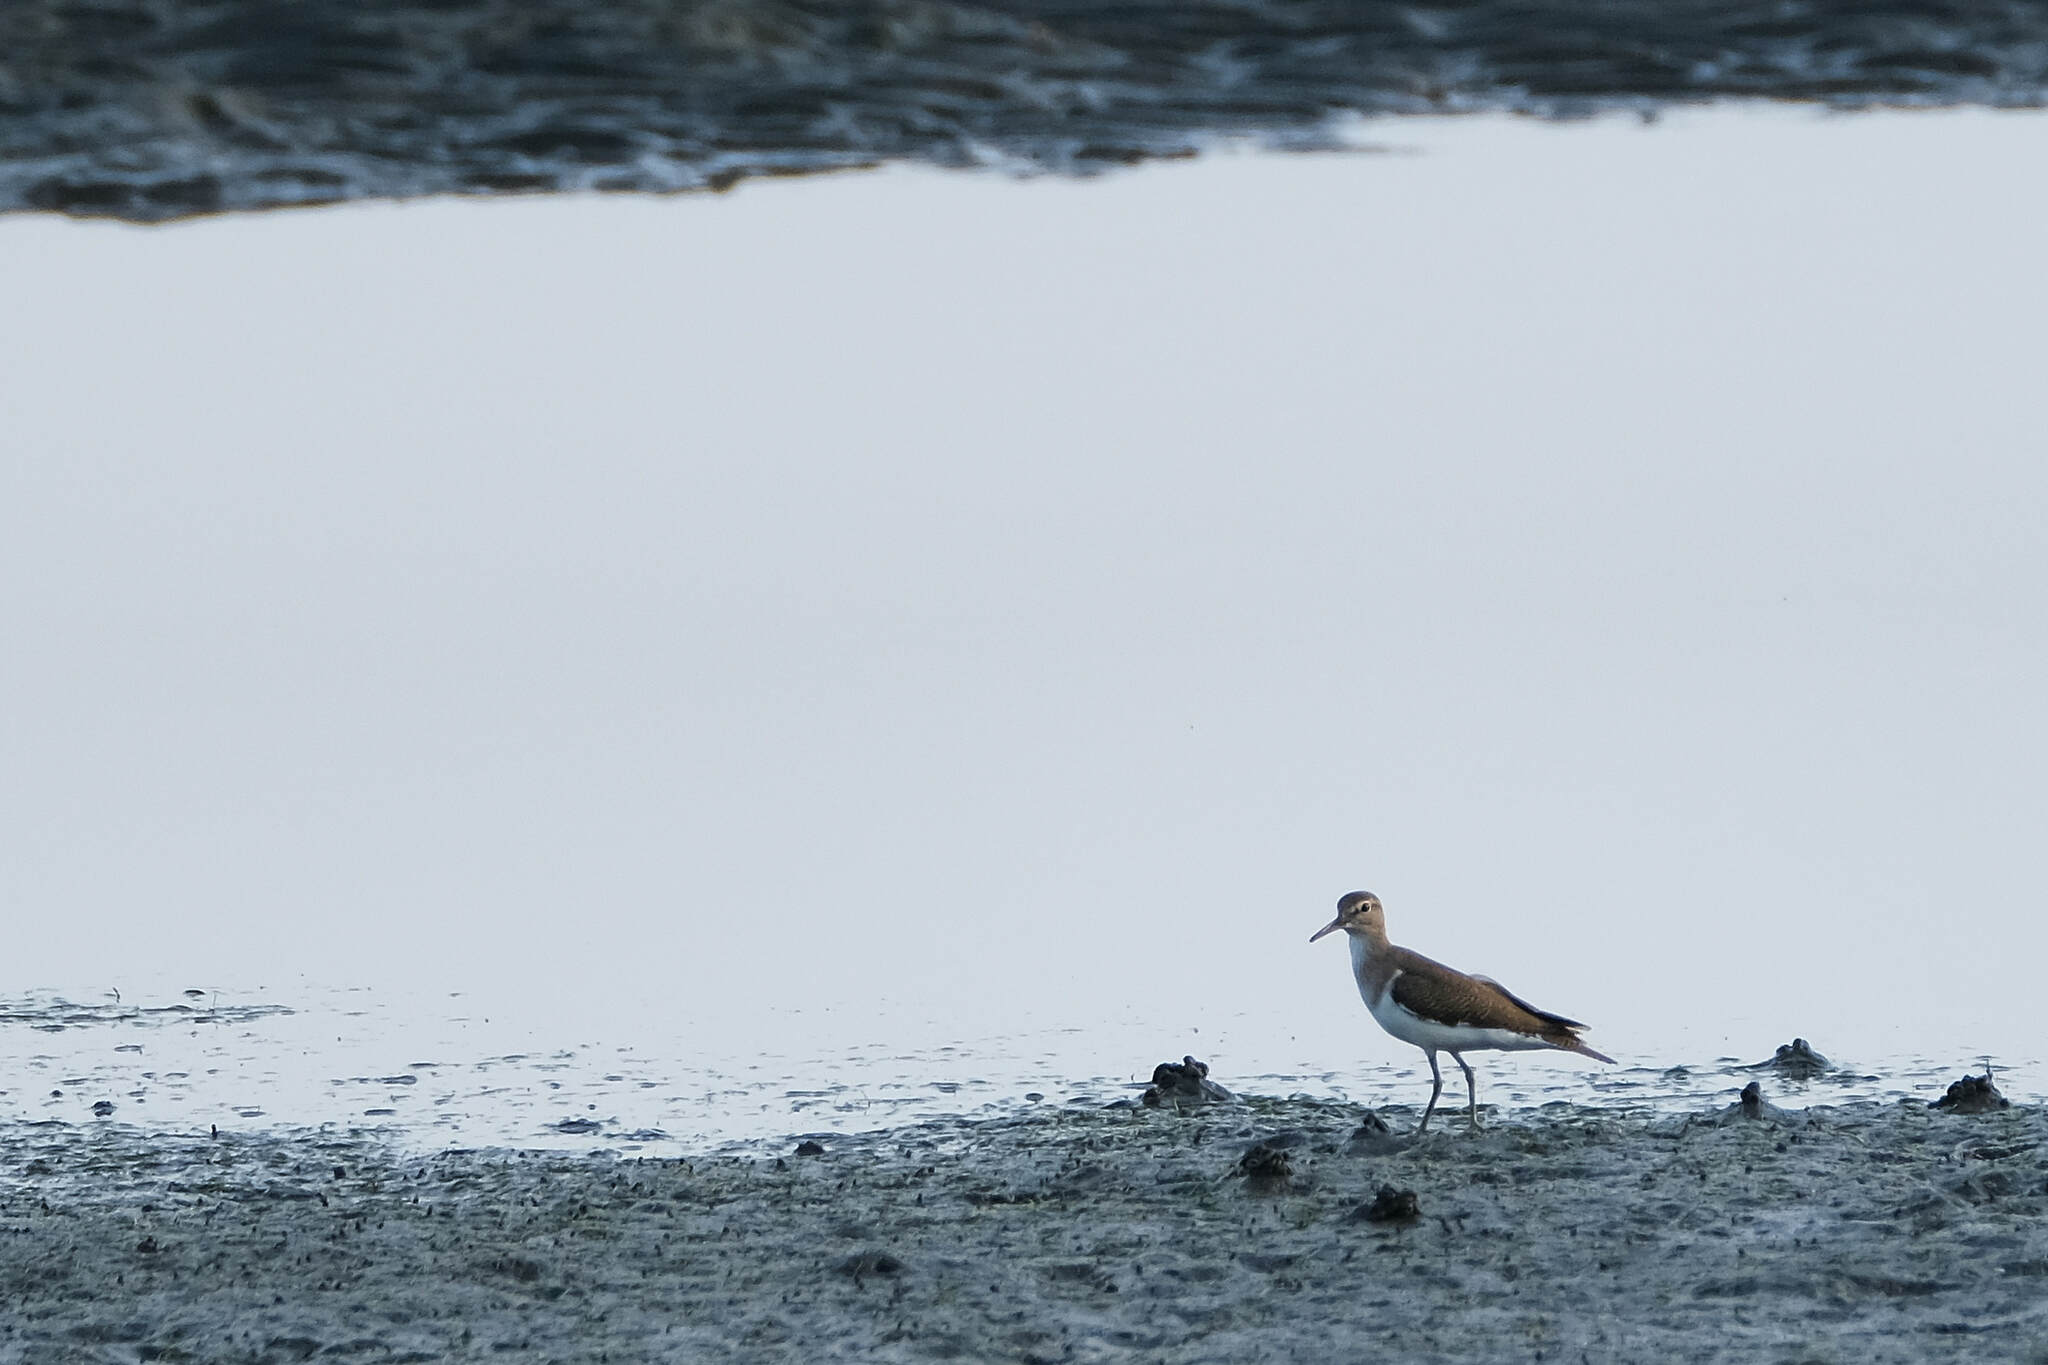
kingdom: Animalia
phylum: Chordata
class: Aves
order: Charadriiformes
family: Scolopacidae
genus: Actitis
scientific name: Actitis hypoleucos
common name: Common sandpiper
